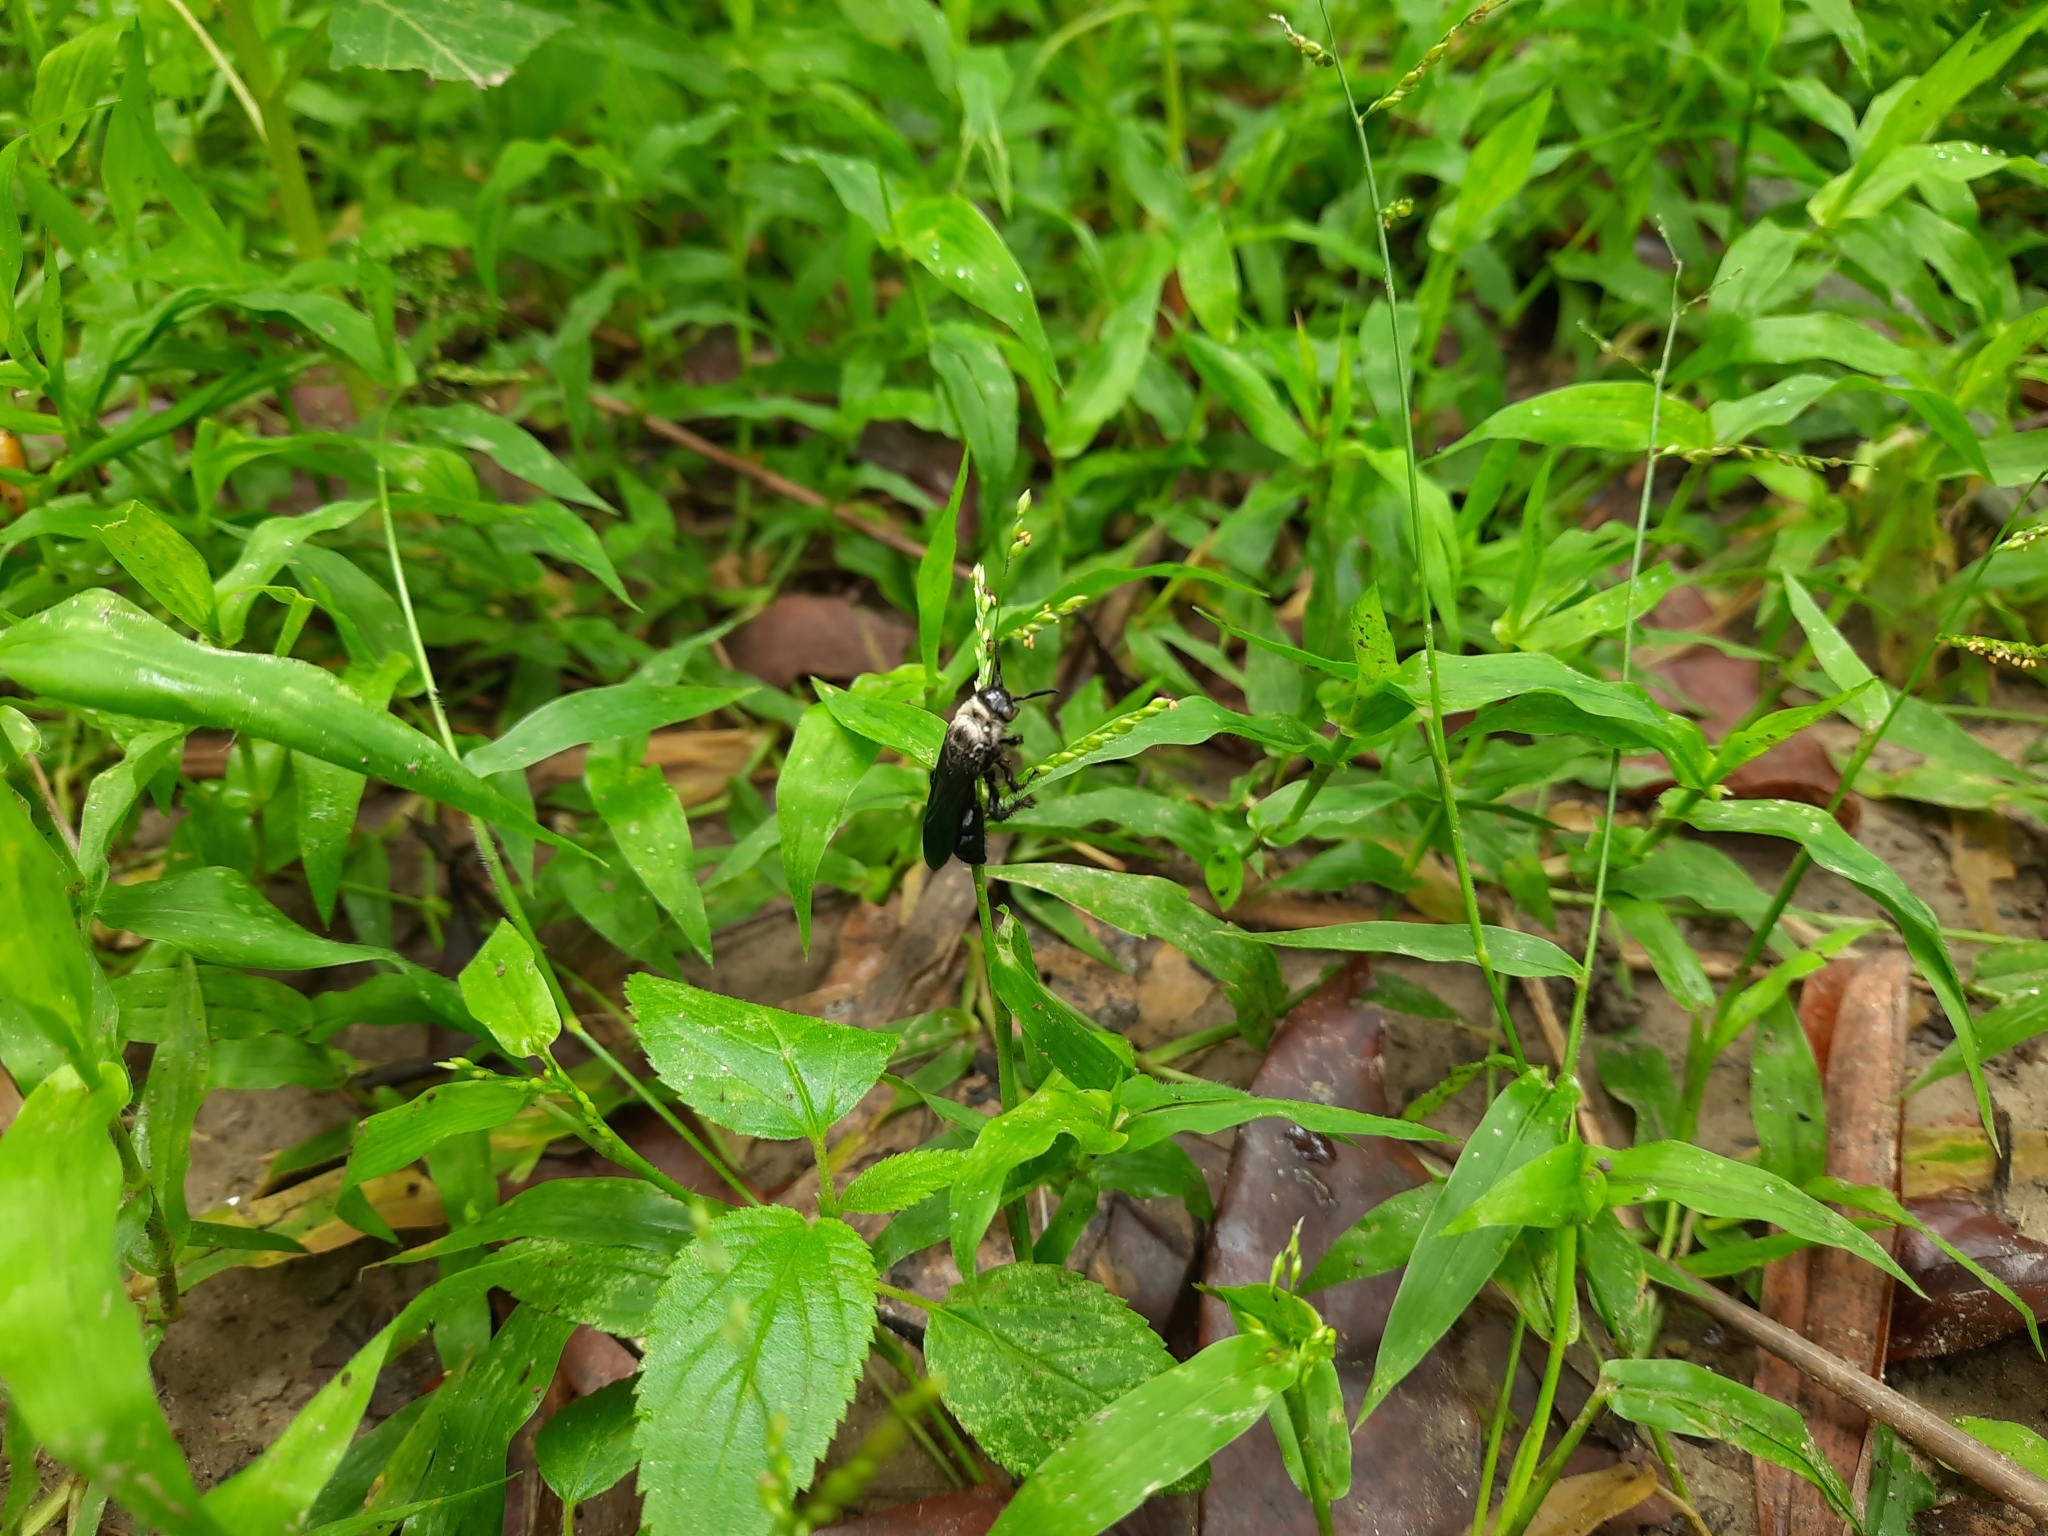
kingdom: Animalia
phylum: Arthropoda
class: Insecta
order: Hymenoptera
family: Scoliidae
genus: Campsomeriella
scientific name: Campsomeriella collaris
